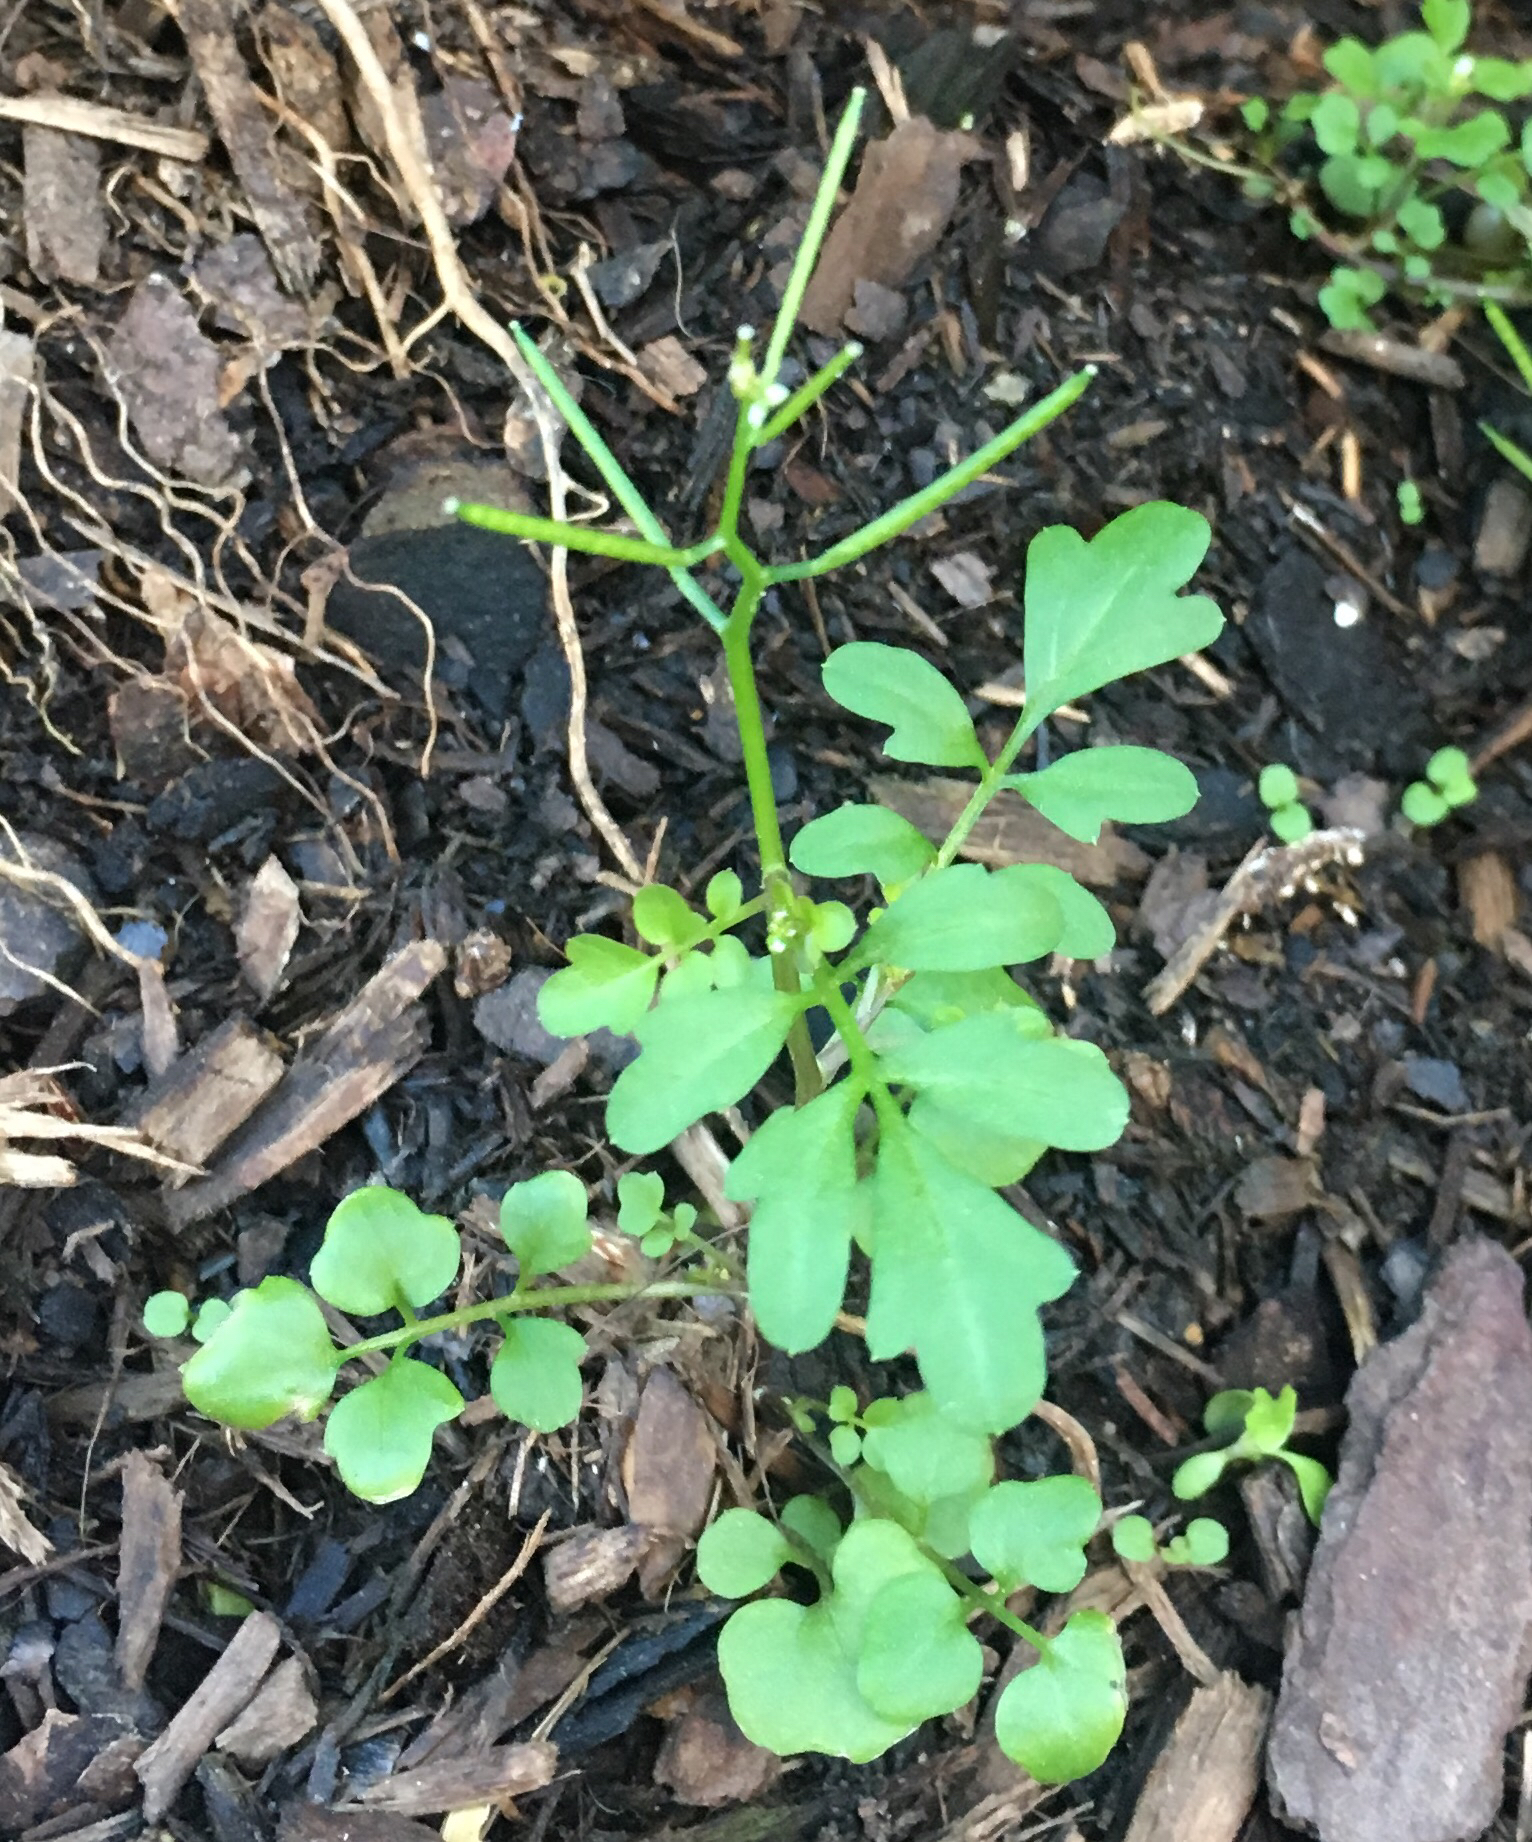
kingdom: Plantae
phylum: Tracheophyta
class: Magnoliopsida
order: Brassicales
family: Brassicaceae
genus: Cardamine
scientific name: Cardamine occulta
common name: Asian wavy bittercress
